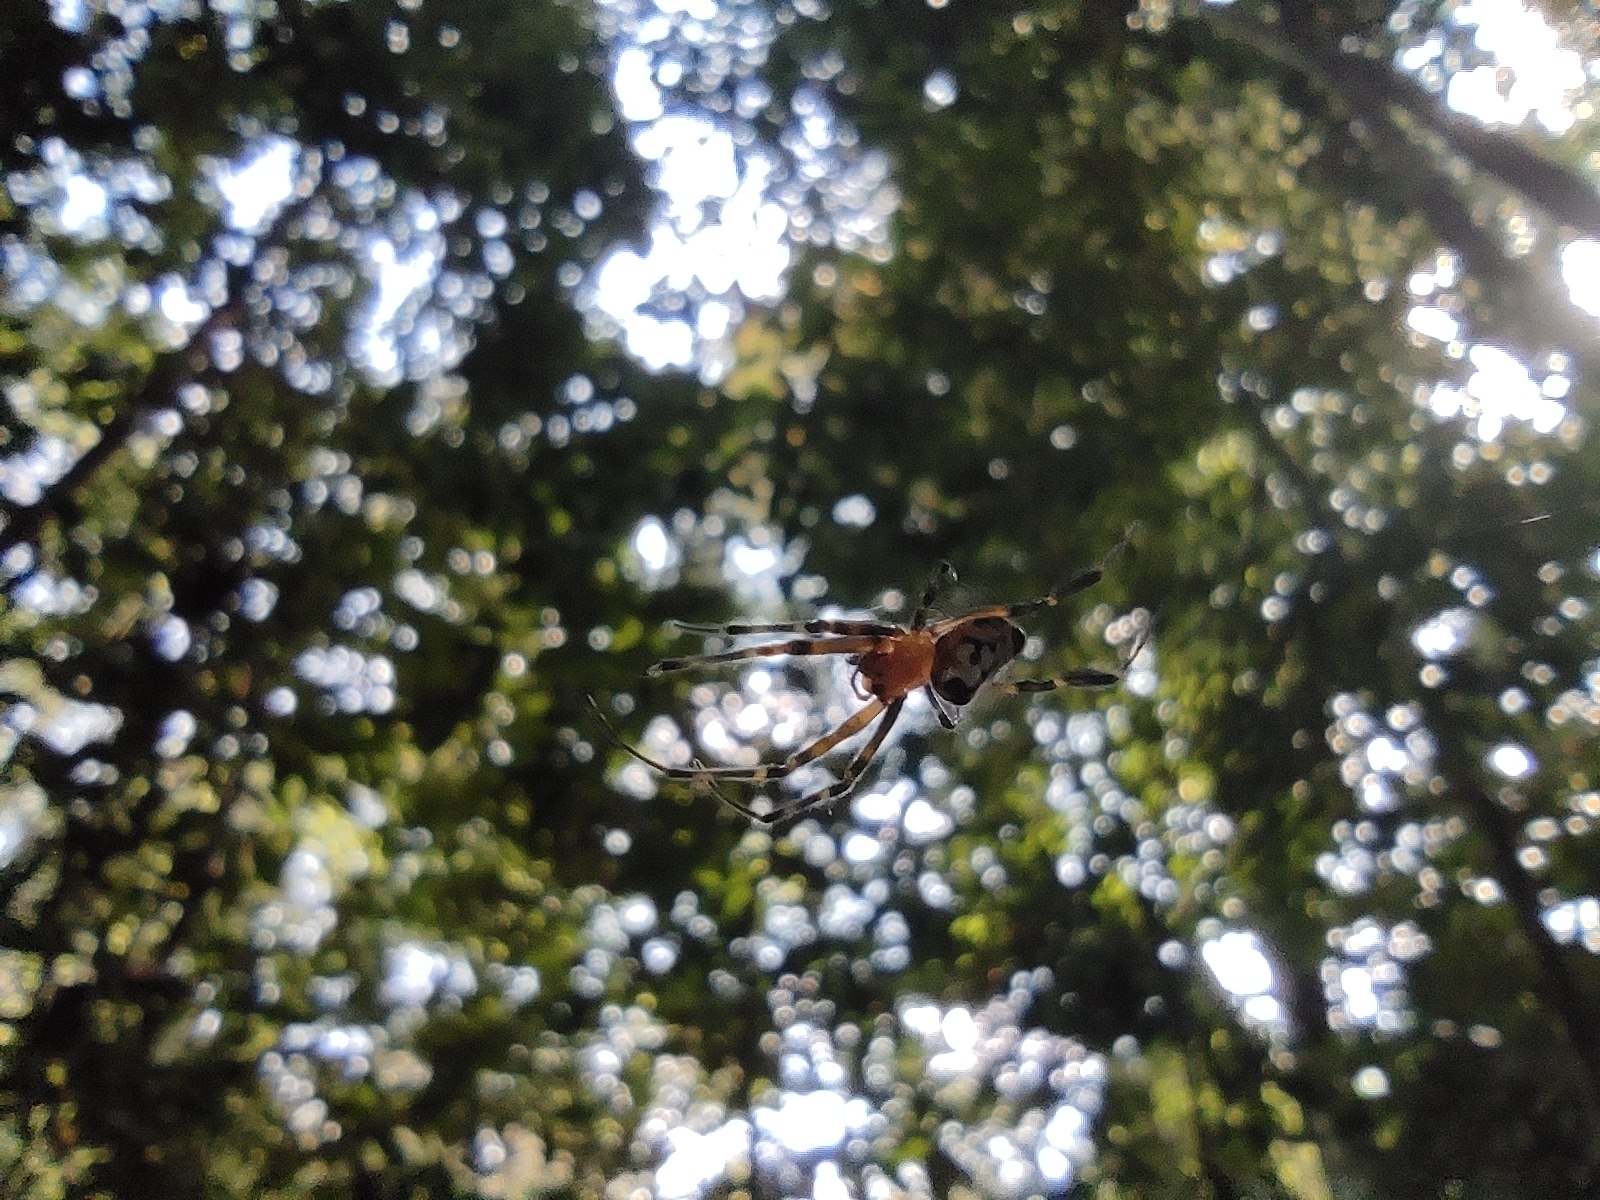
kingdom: Animalia
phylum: Arthropoda
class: Arachnida
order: Araneae
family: Tetragnathidae
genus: Leucauge
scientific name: Leucauge fastigata
